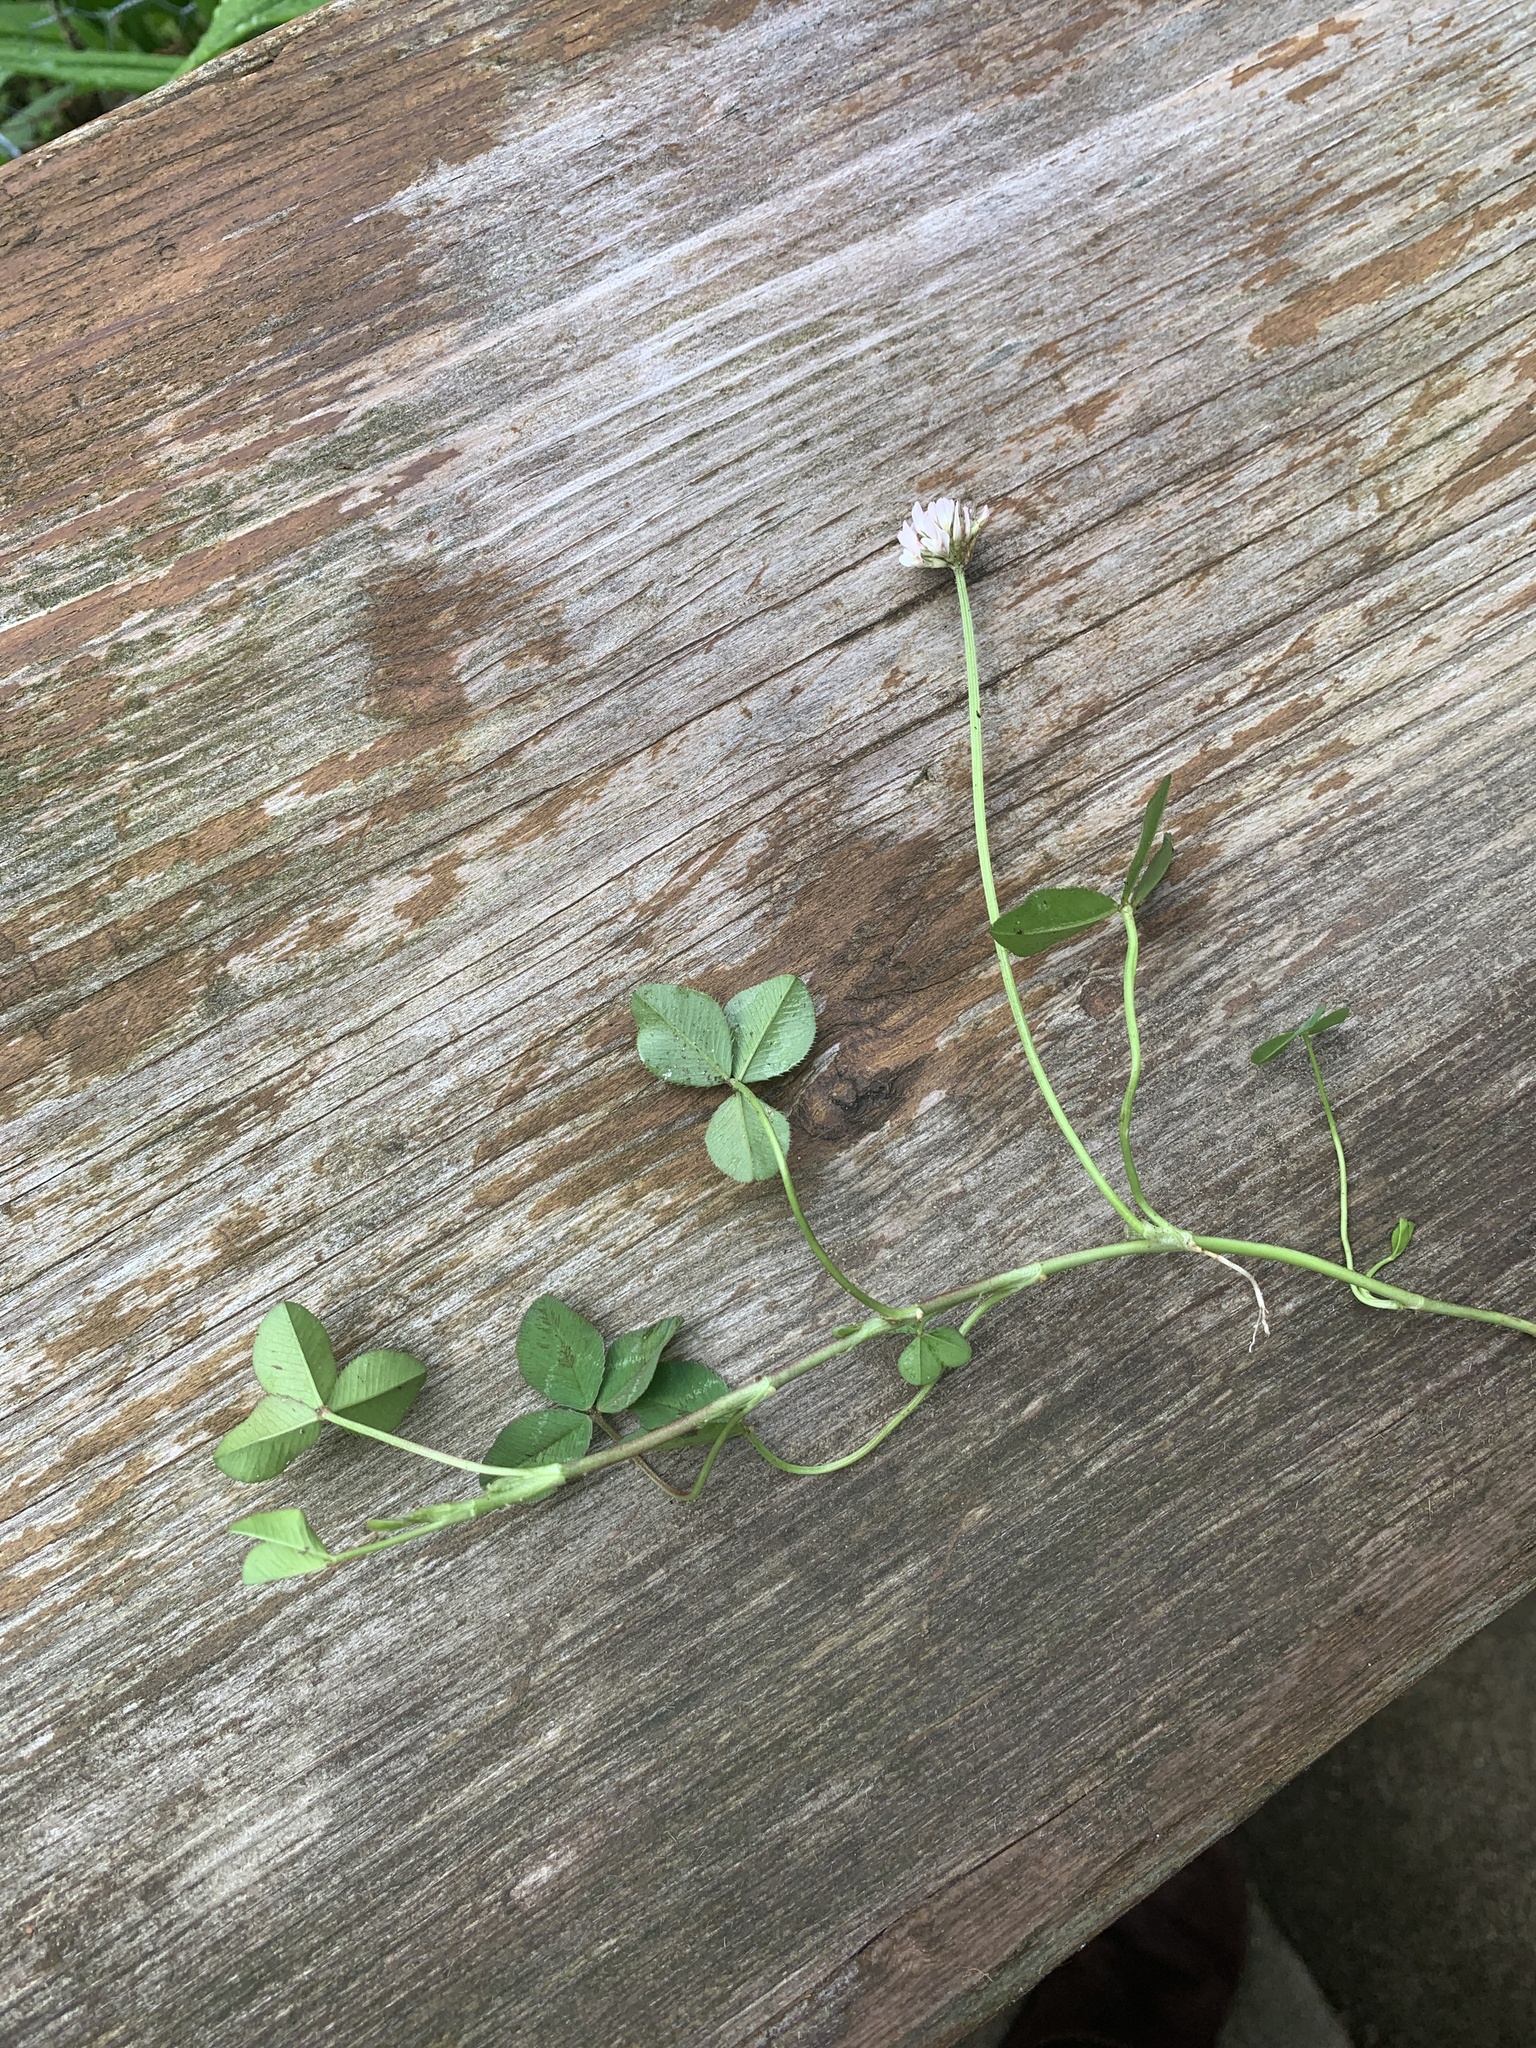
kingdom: Plantae
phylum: Tracheophyta
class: Magnoliopsida
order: Fabales
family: Fabaceae
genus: Trifolium
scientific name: Trifolium repens
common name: White clover
